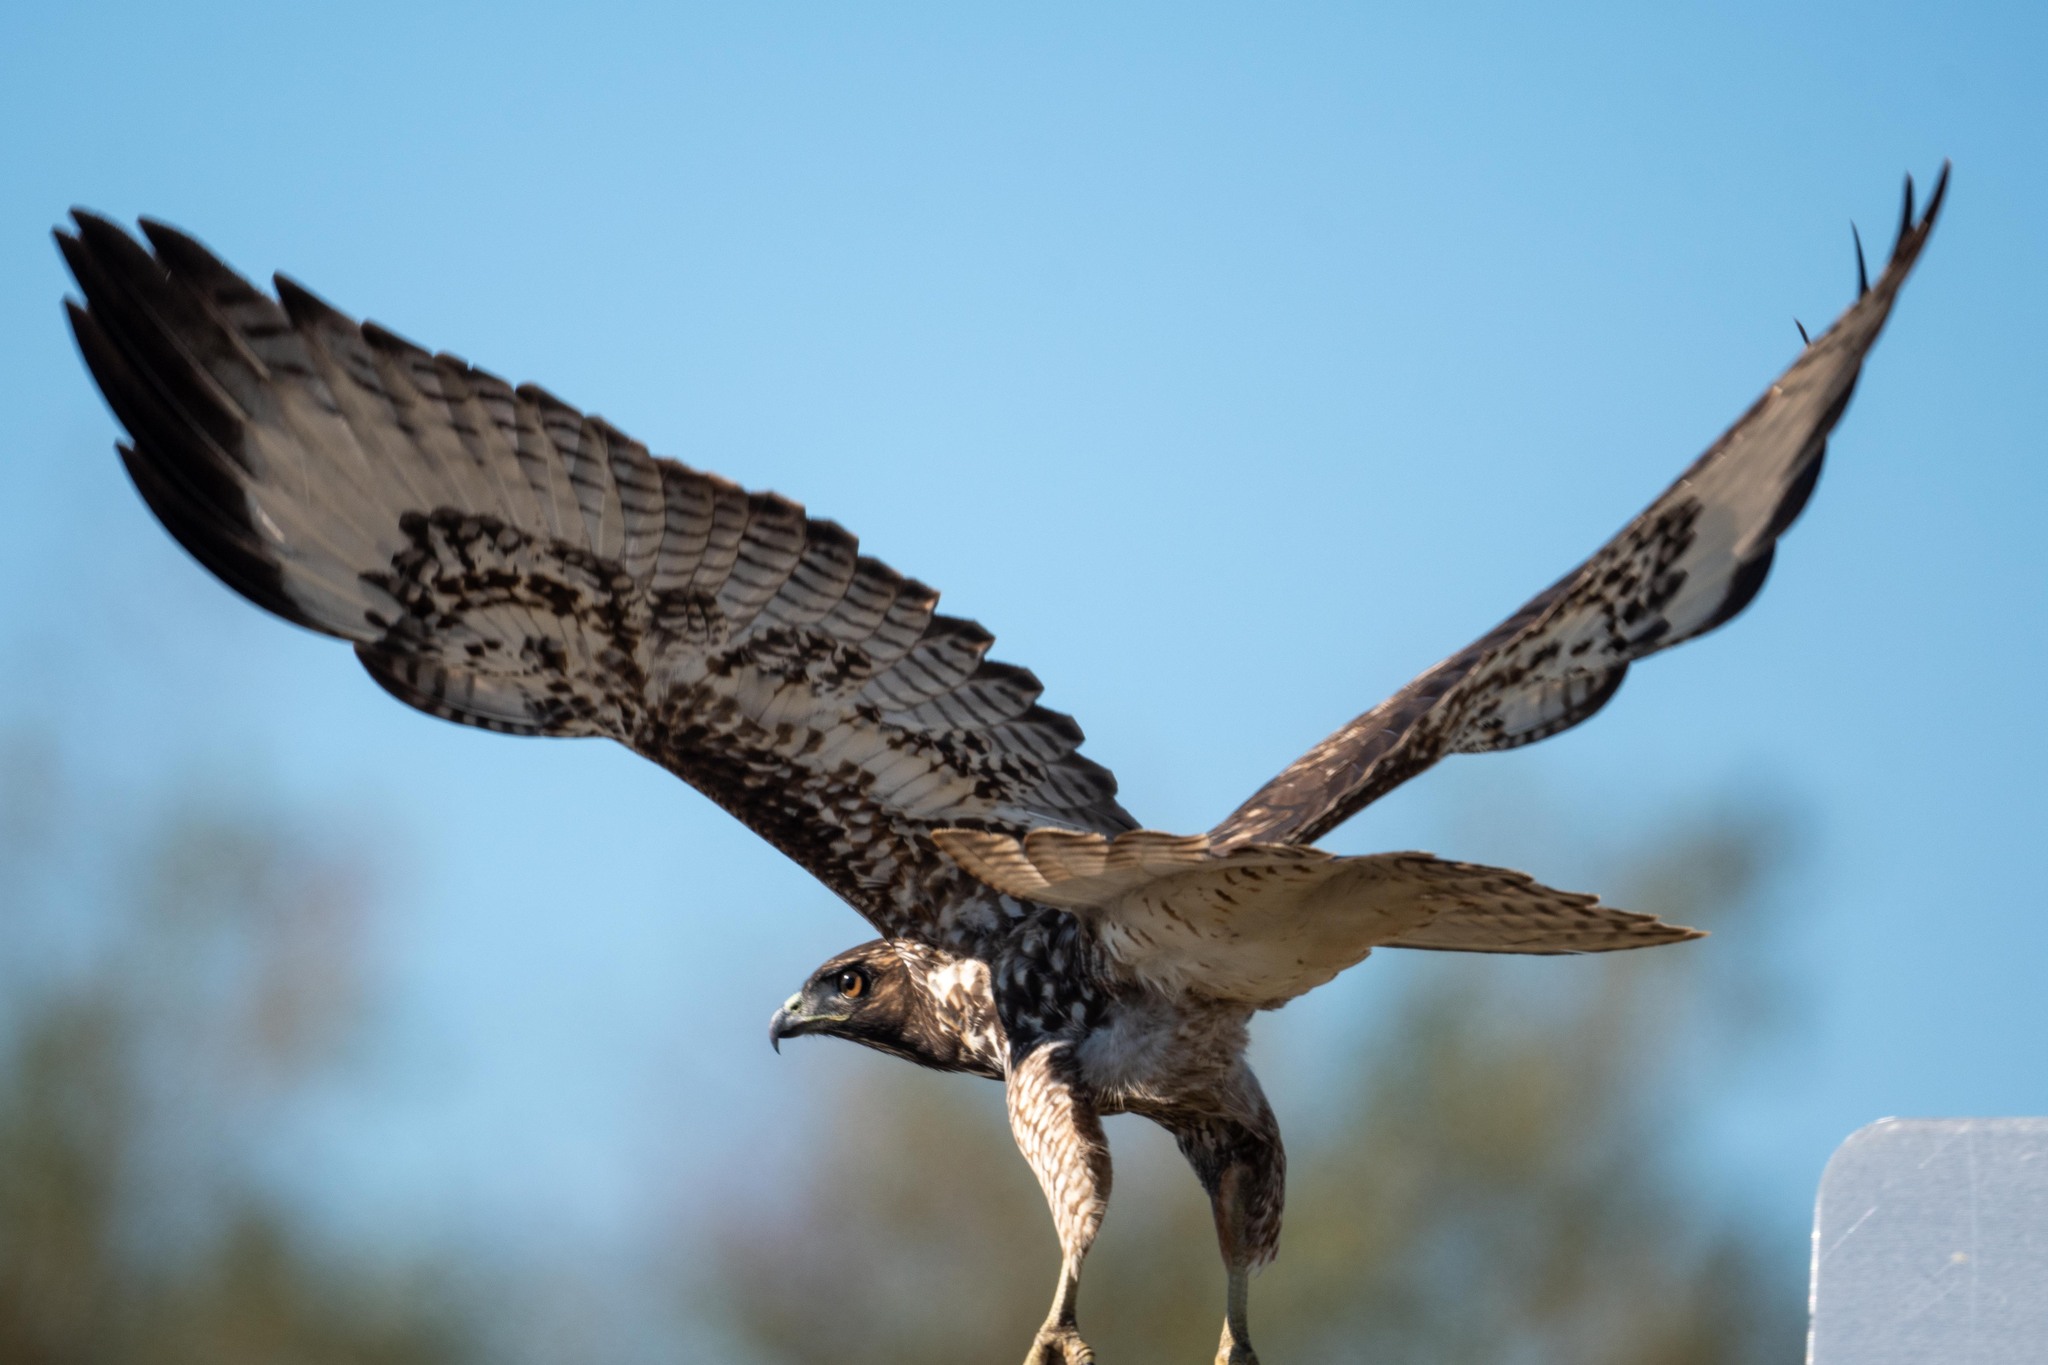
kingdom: Animalia
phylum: Chordata
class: Aves
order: Accipitriformes
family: Accipitridae
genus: Buteo
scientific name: Buteo jamaicensis
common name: Red-tailed hawk
